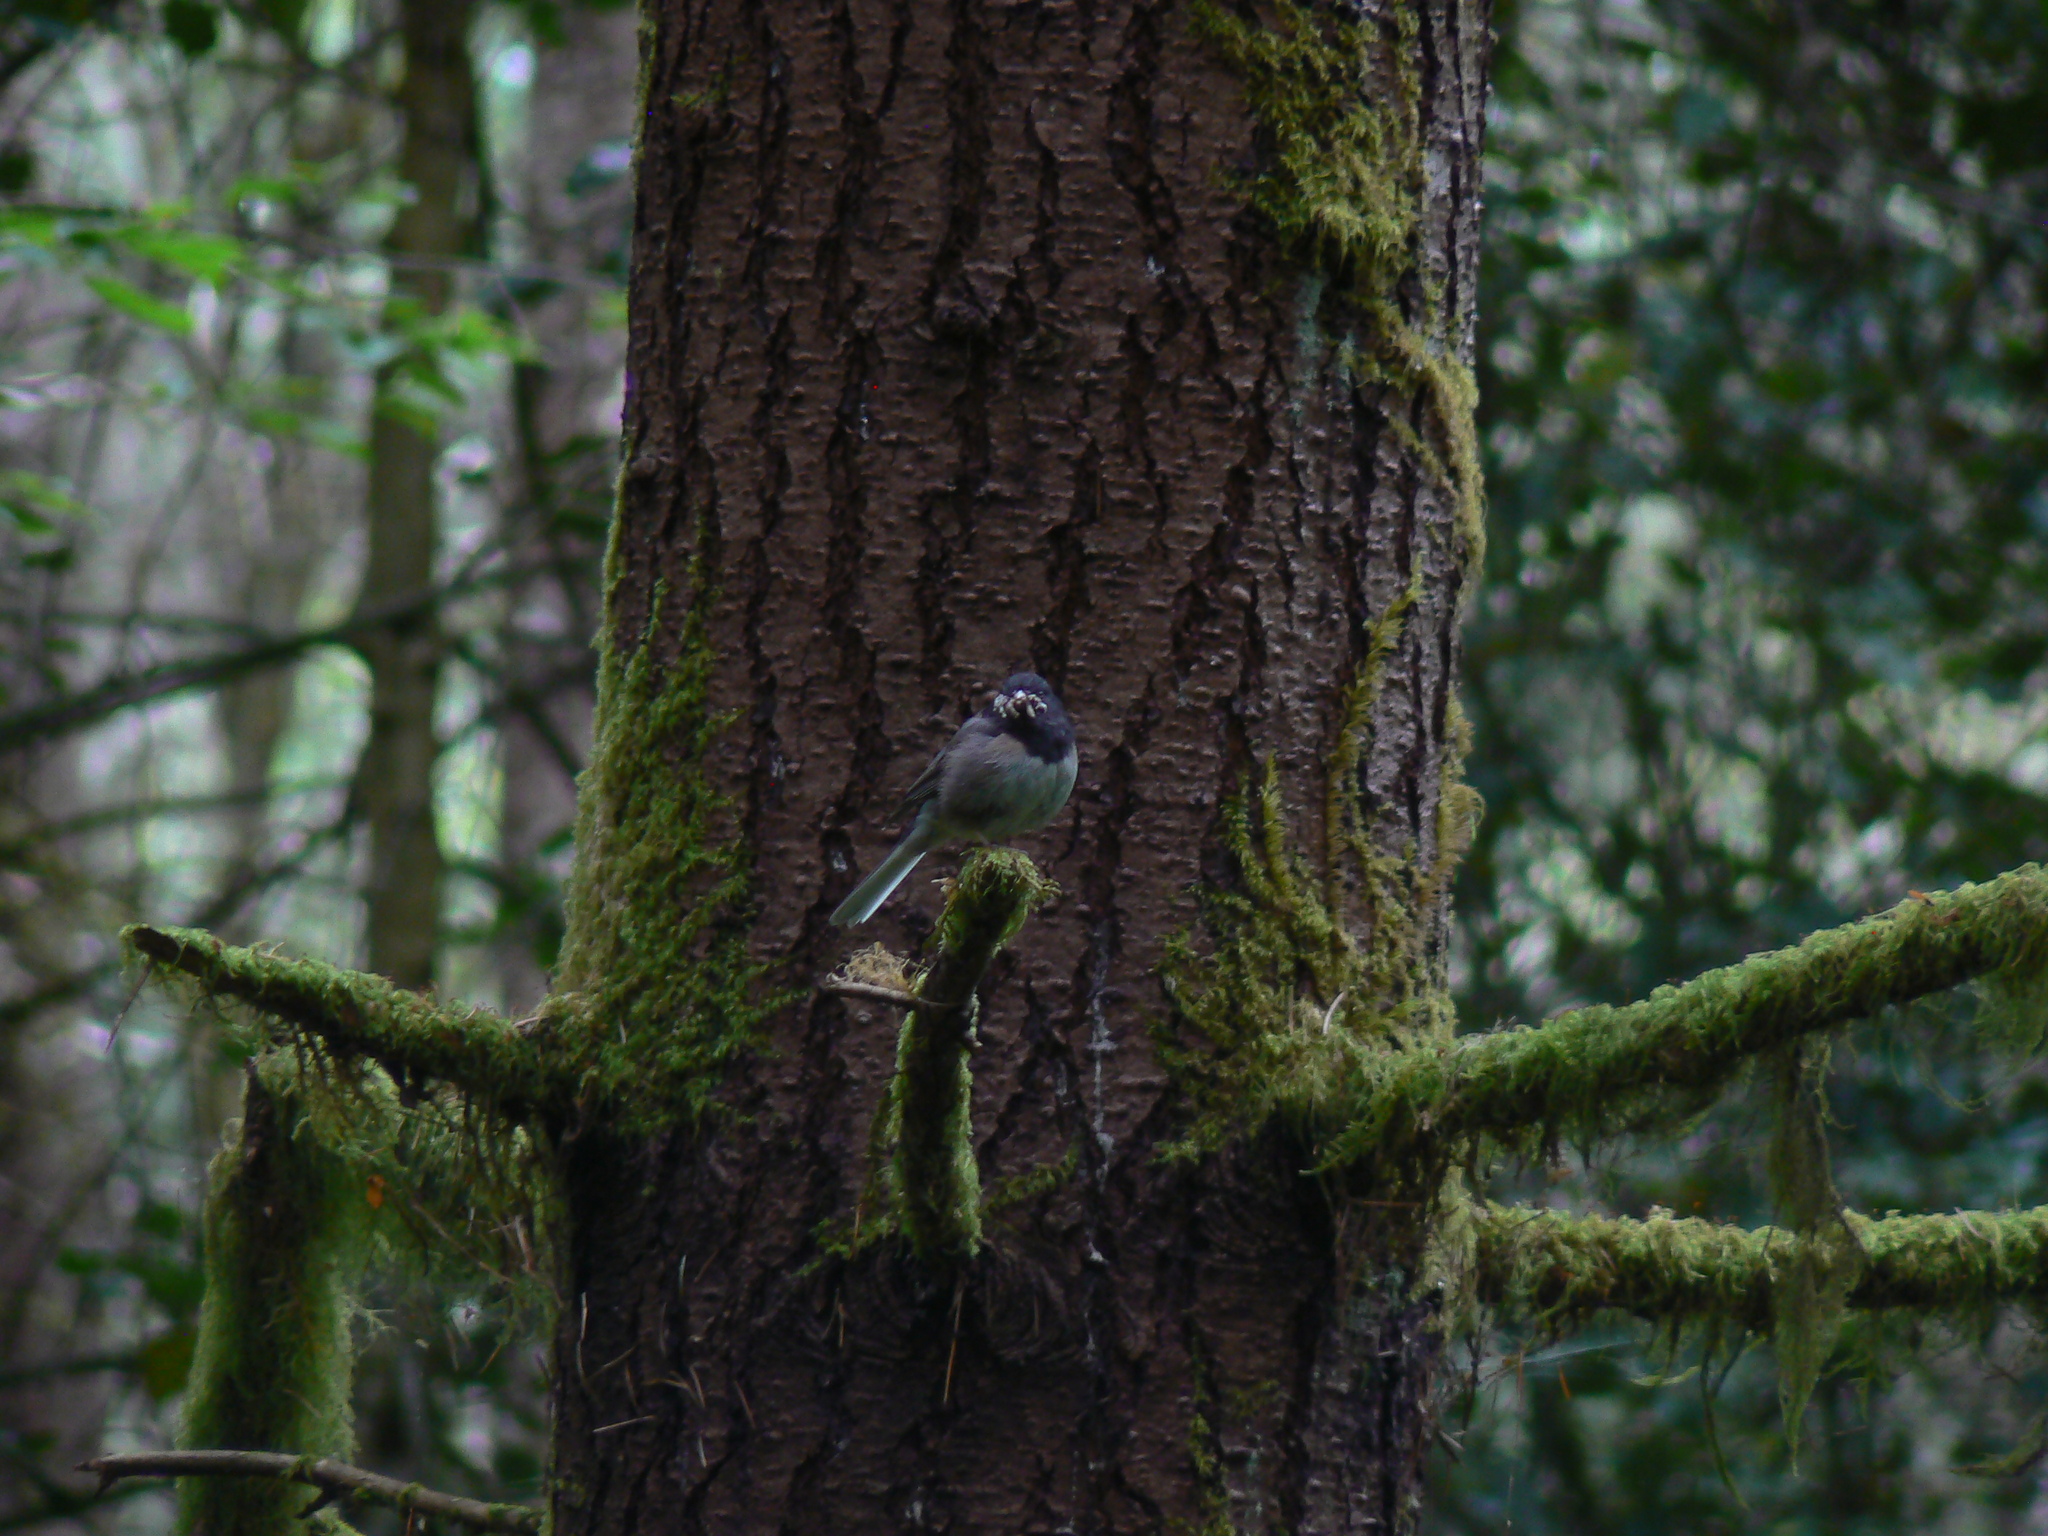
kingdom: Animalia
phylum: Chordata
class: Aves
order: Passeriformes
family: Passerellidae
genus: Junco
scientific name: Junco hyemalis
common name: Dark-eyed junco
